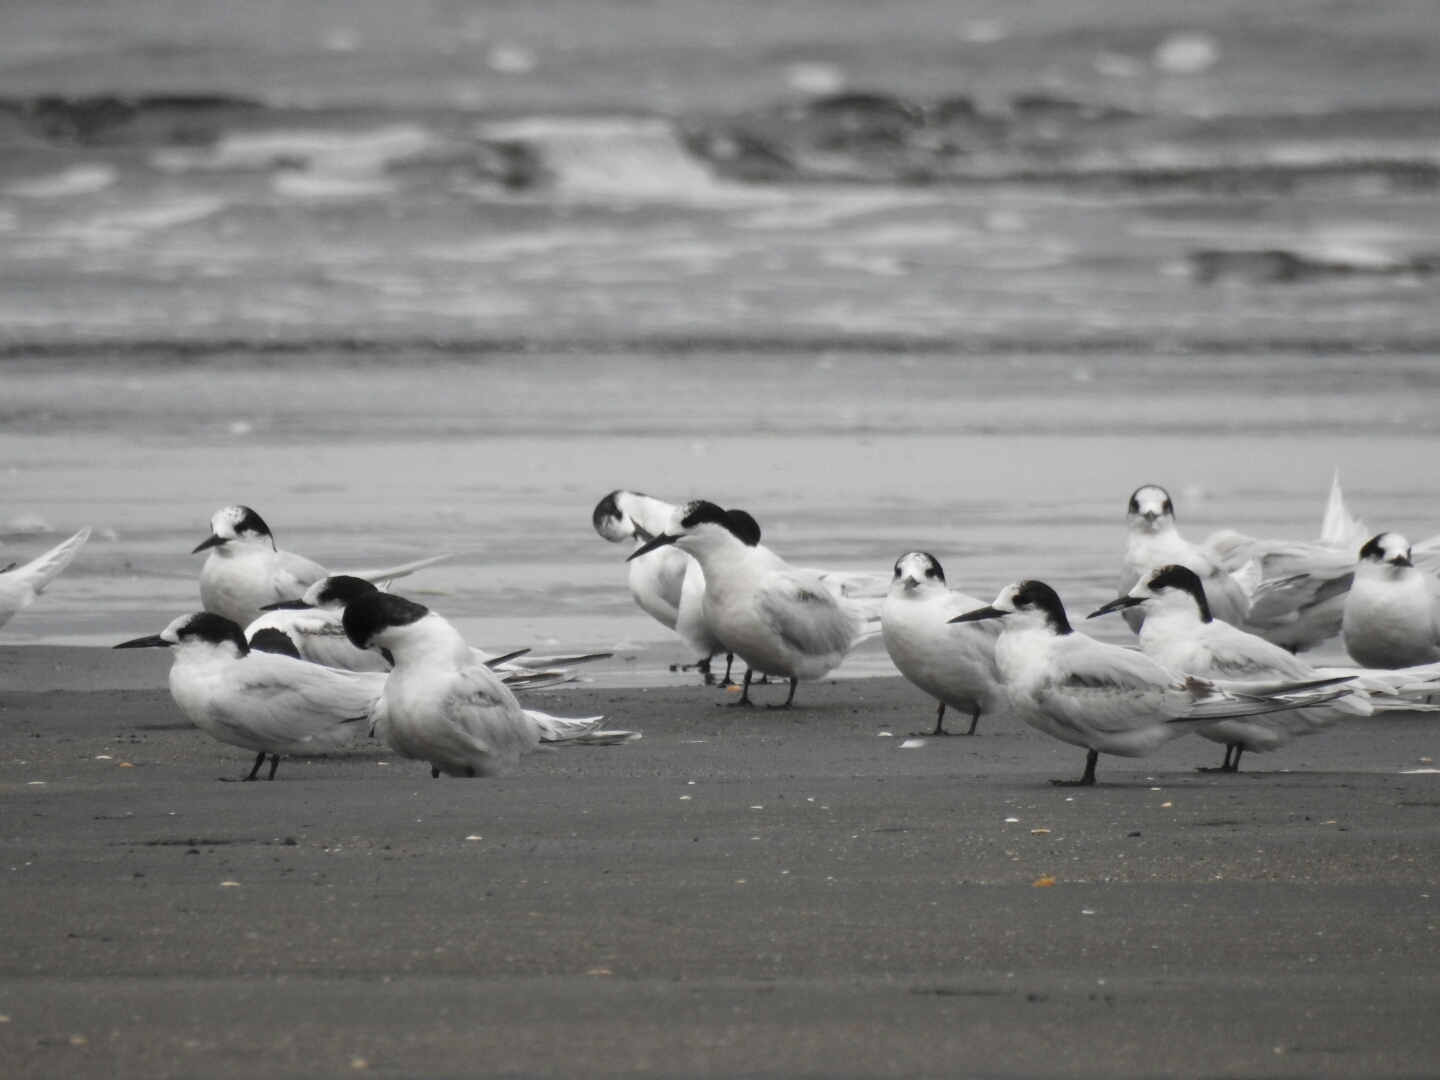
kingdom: Animalia
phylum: Chordata
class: Aves
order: Charadriiformes
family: Laridae
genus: Sterna
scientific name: Sterna striata
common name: White-fronted tern
